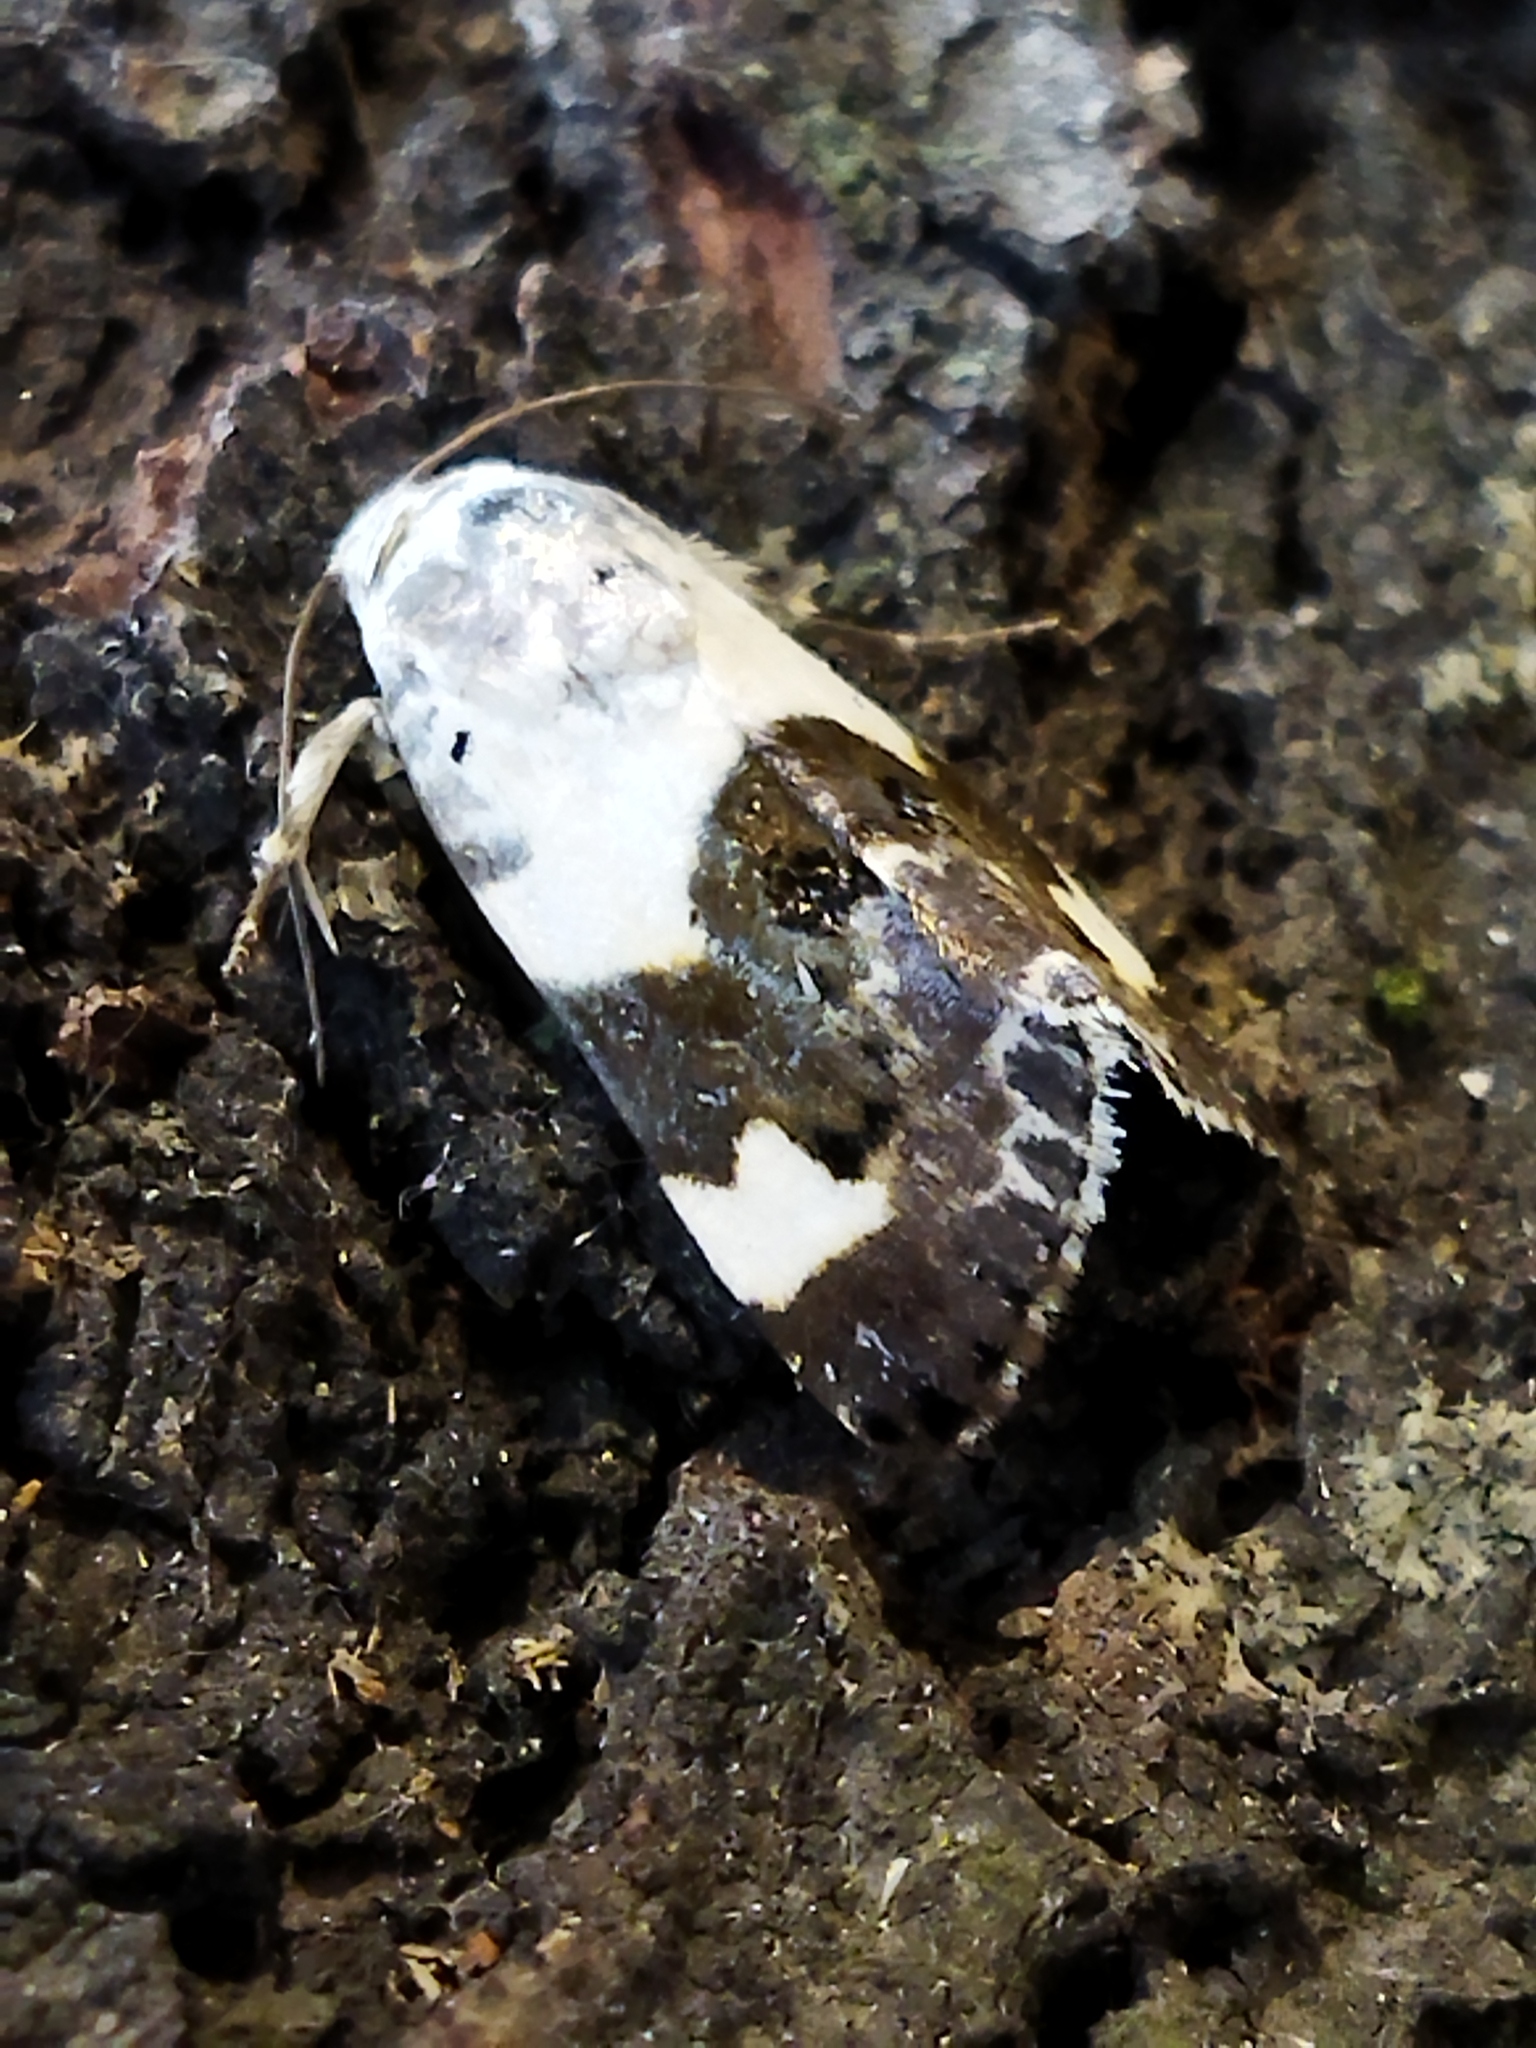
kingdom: Animalia
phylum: Arthropoda
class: Insecta
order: Lepidoptera
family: Noctuidae
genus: Acontia
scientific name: Acontia lucida
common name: Pale shoulder
